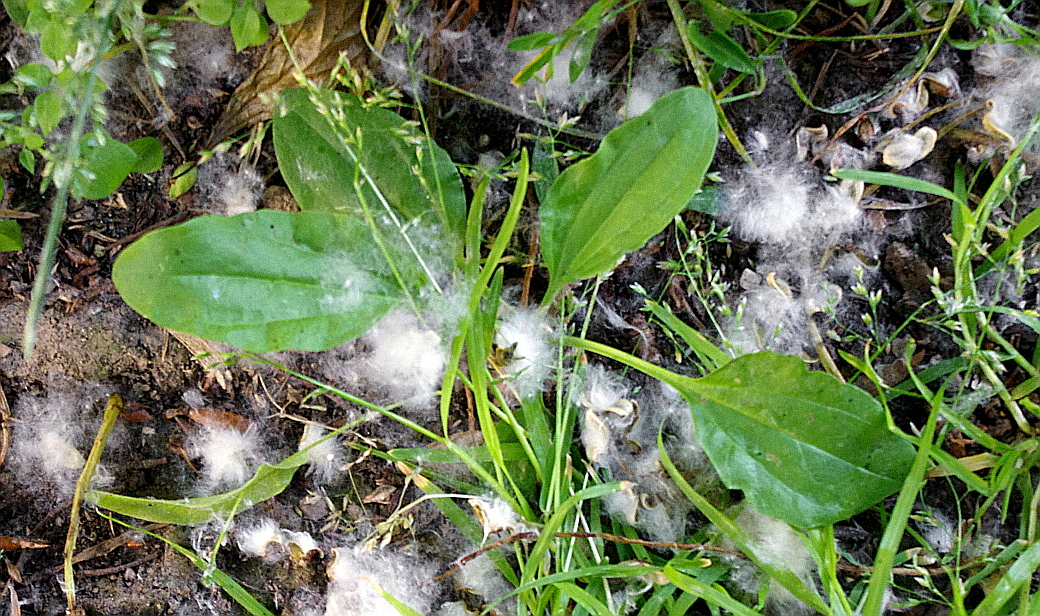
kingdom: Plantae
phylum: Tracheophyta
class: Magnoliopsida
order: Lamiales
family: Plantaginaceae
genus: Plantago
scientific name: Plantago major
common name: Common plantain
